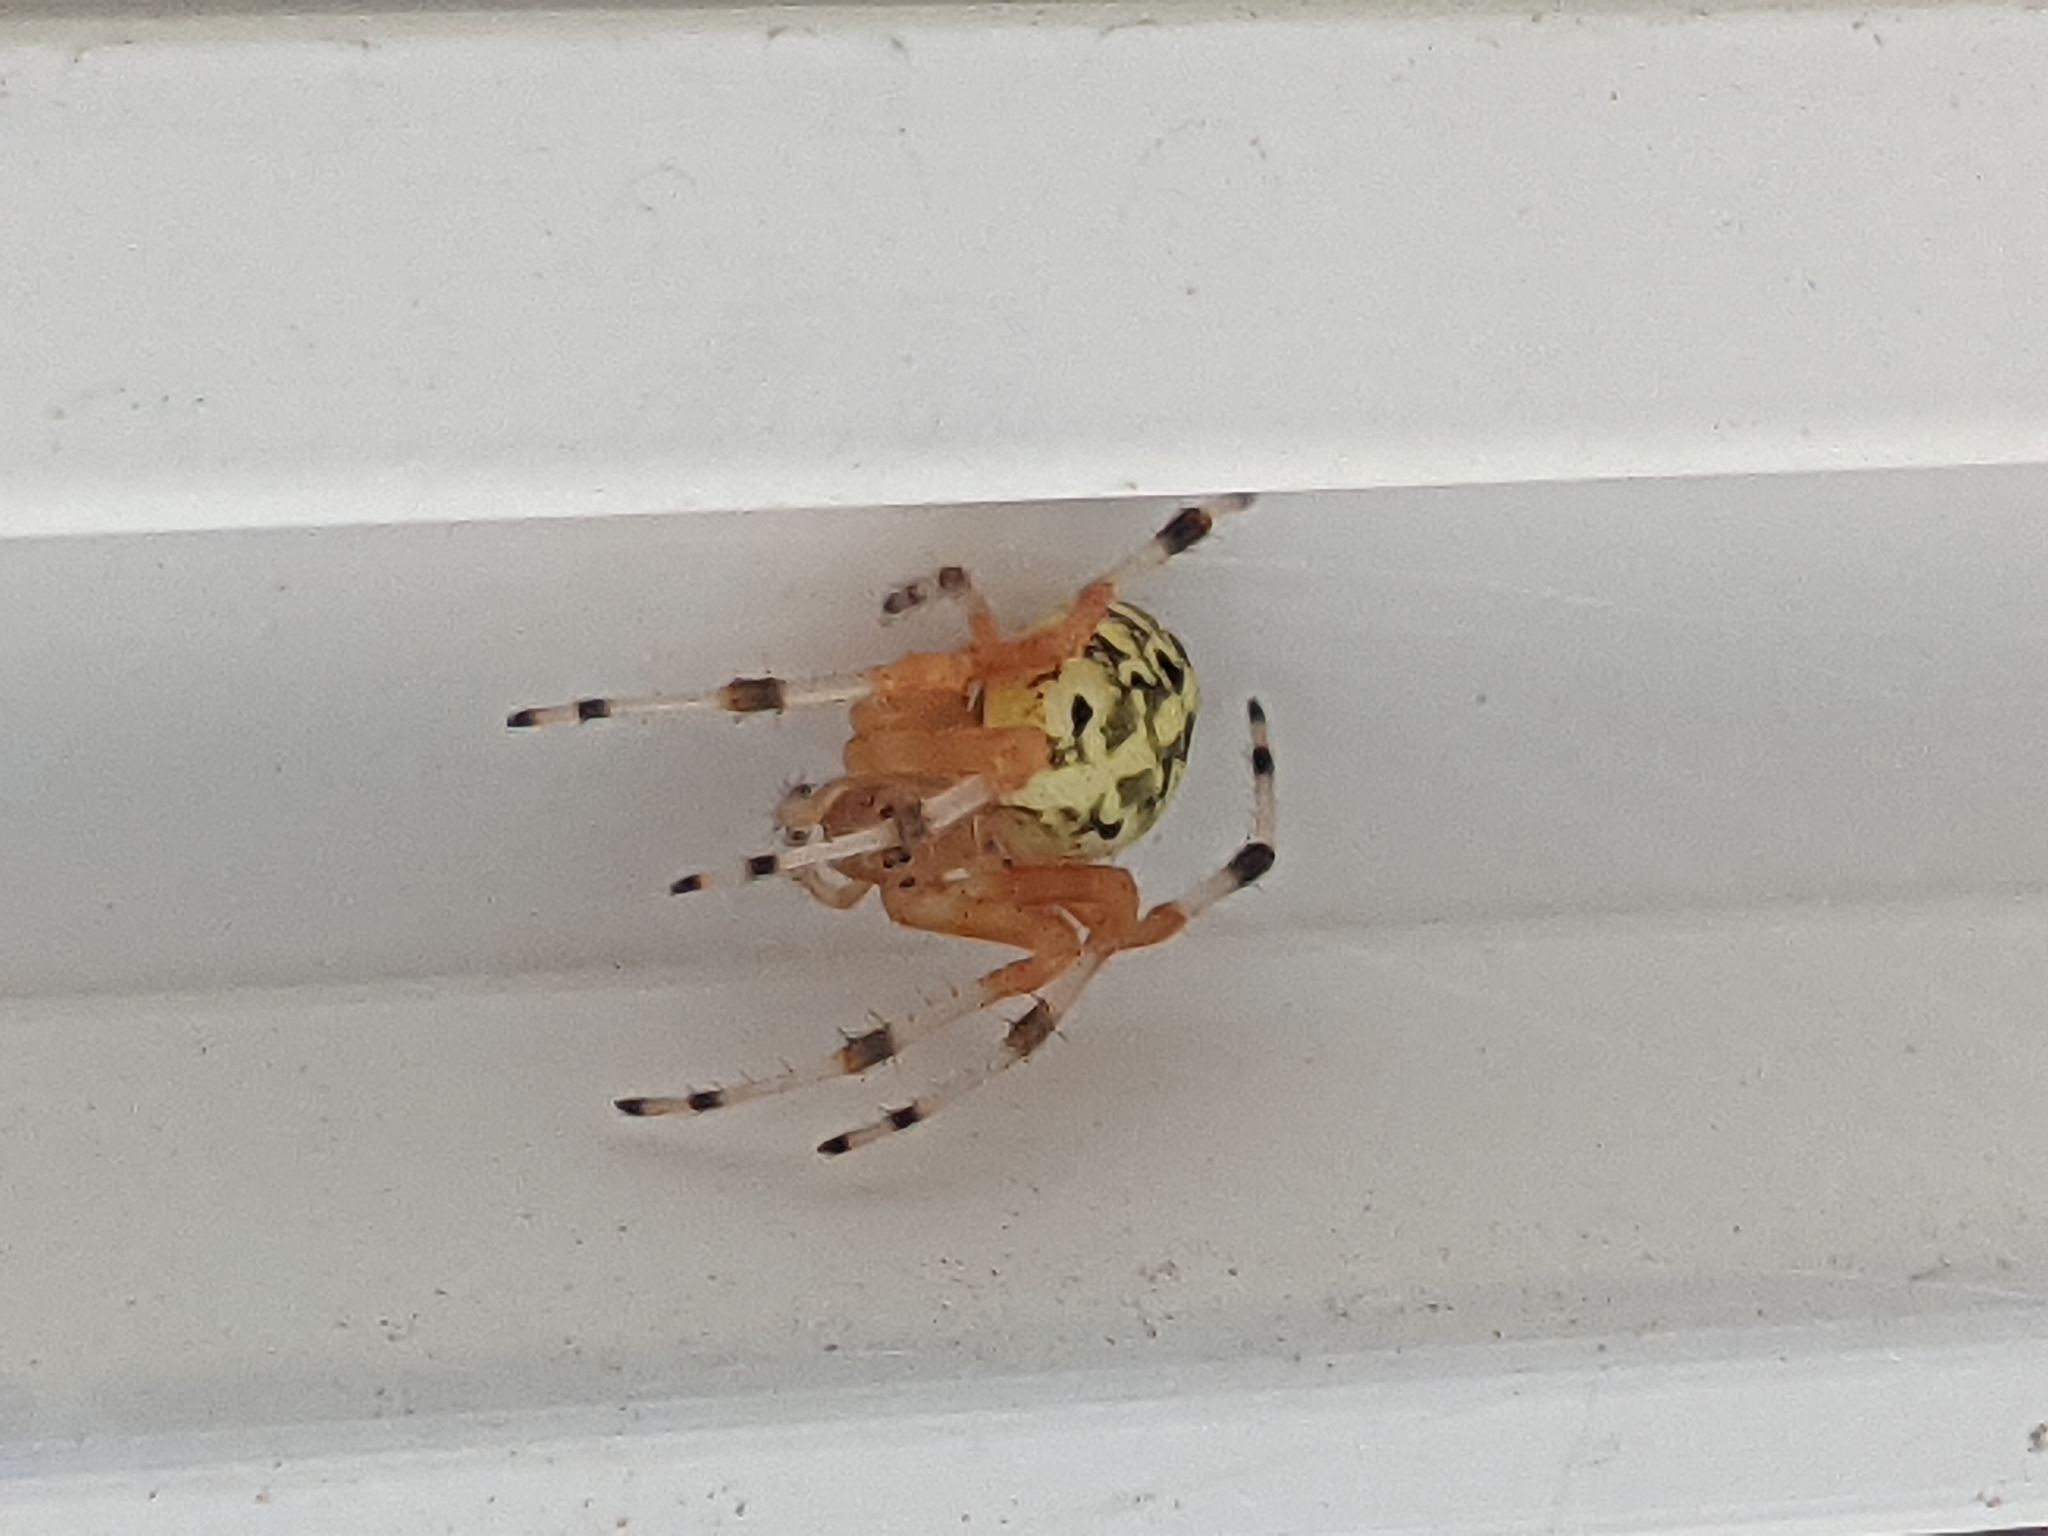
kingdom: Animalia
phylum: Arthropoda
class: Arachnida
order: Araneae
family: Araneidae
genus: Araneus
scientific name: Araneus marmoreus
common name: Marbled orbweaver
